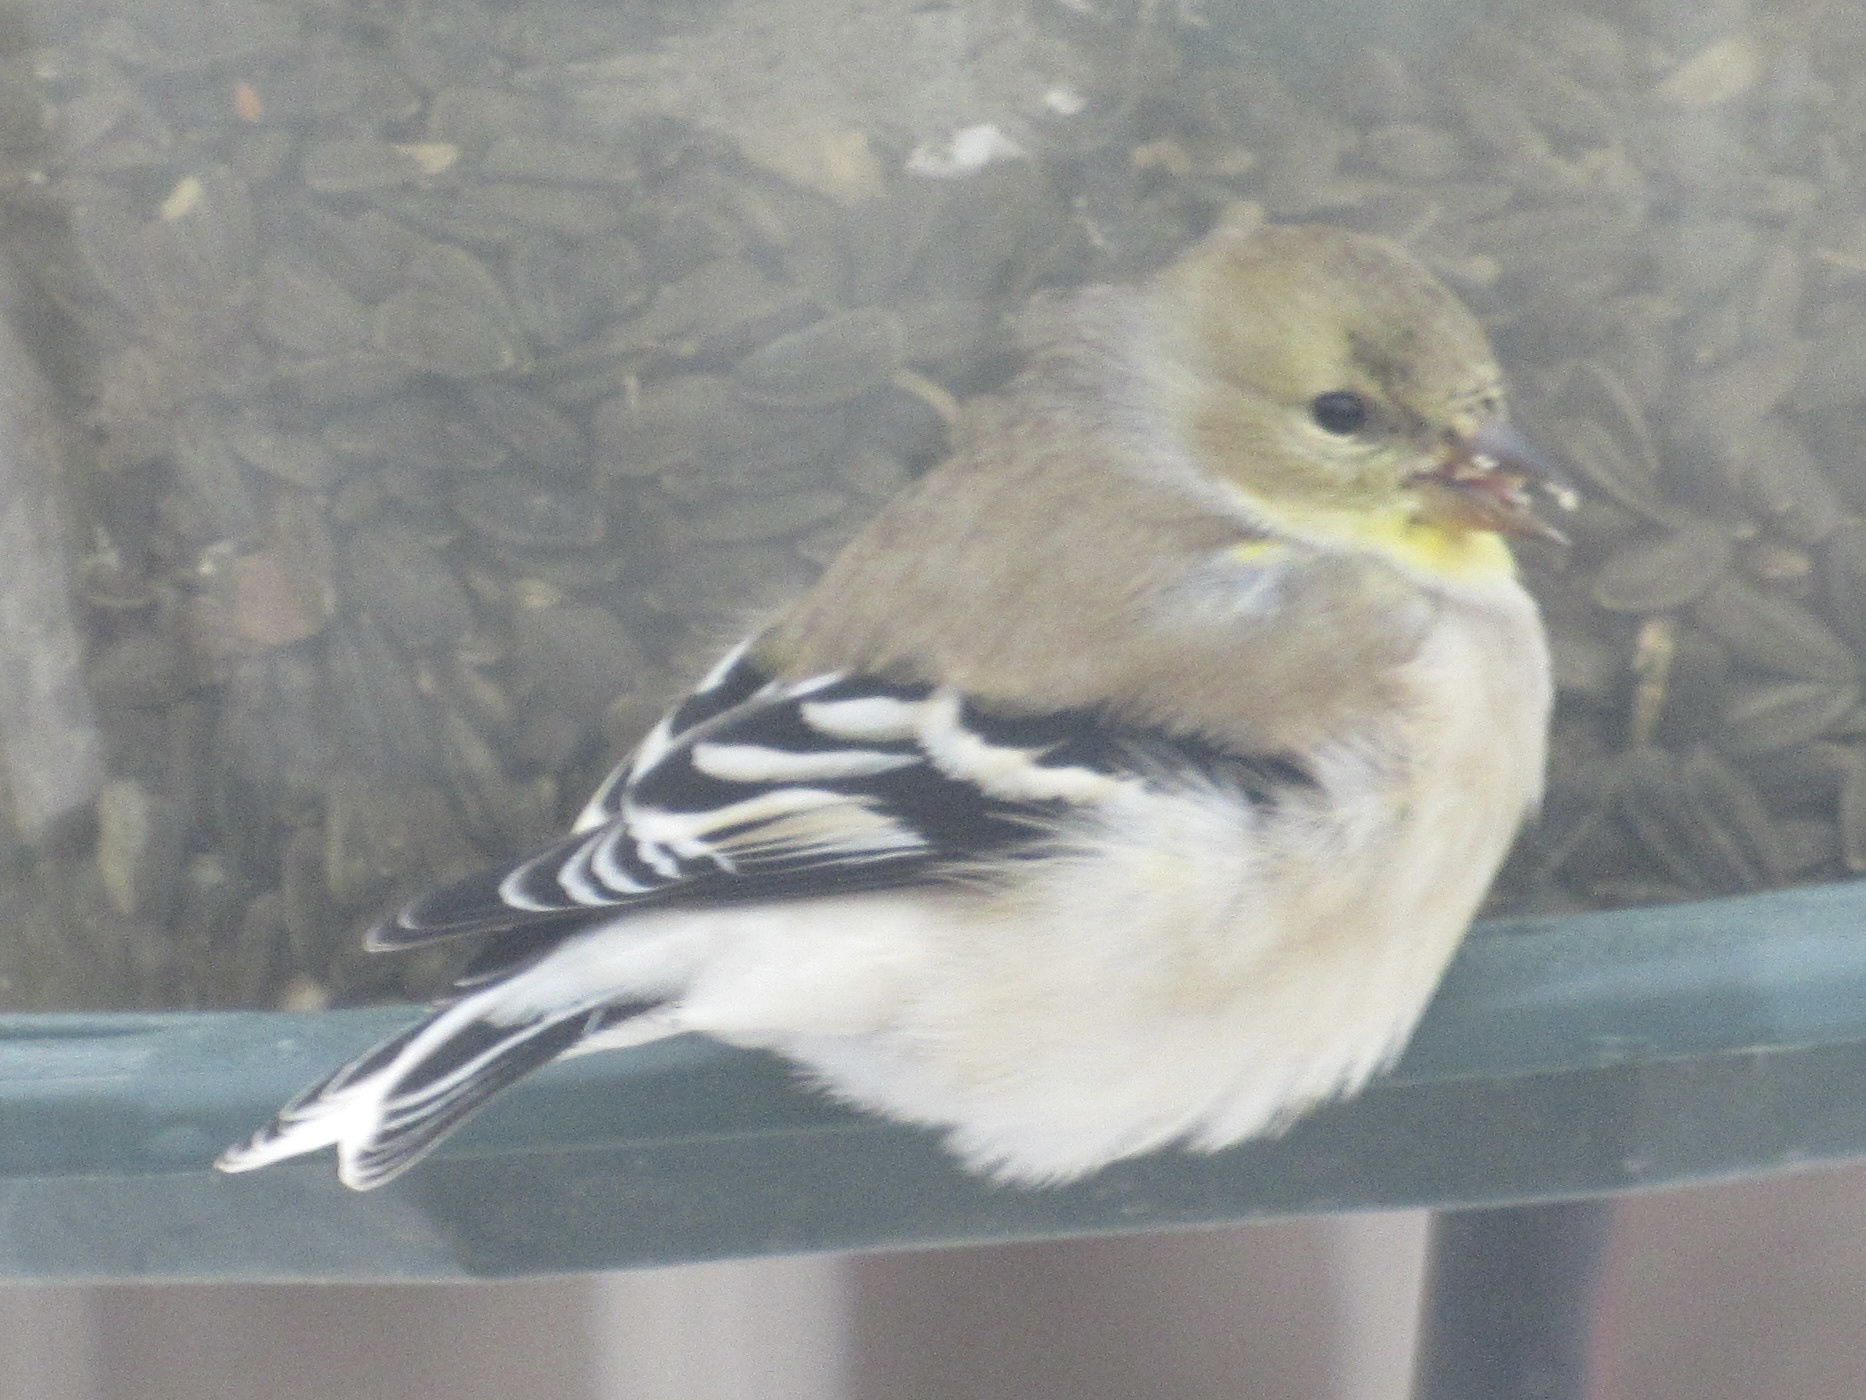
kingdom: Animalia
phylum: Chordata
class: Aves
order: Passeriformes
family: Fringillidae
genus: Spinus
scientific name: Spinus tristis
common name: American goldfinch
